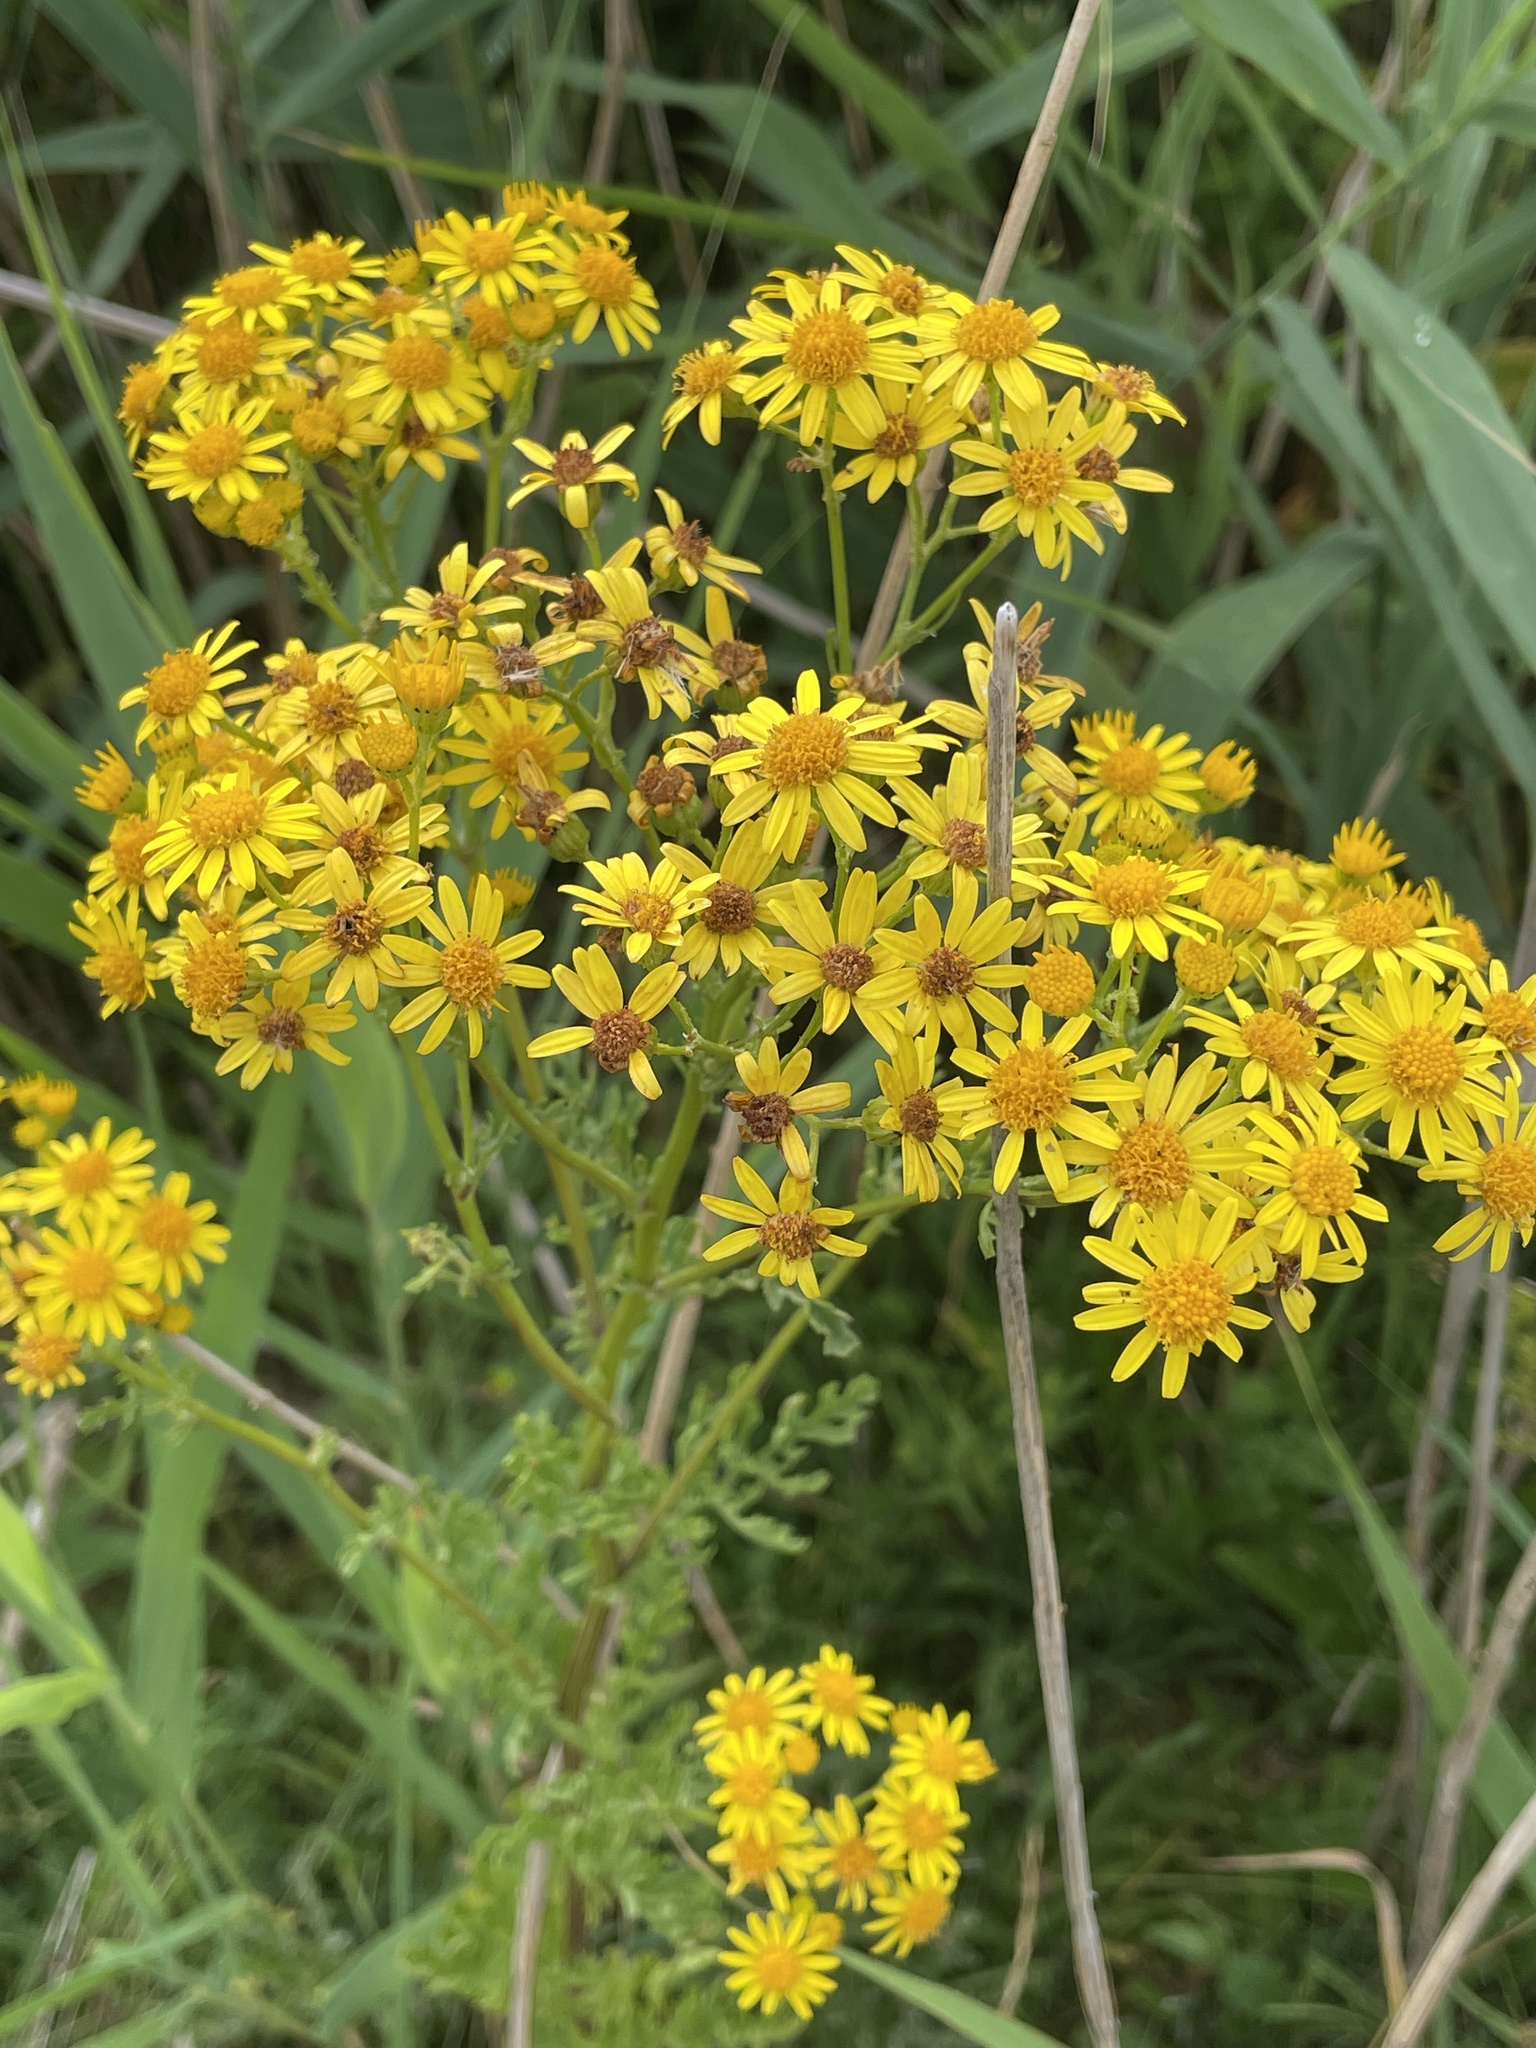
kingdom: Plantae
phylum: Tracheophyta
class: Magnoliopsida
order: Asterales
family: Asteraceae
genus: Jacobaea
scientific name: Jacobaea vulgaris
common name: Stinking willie
